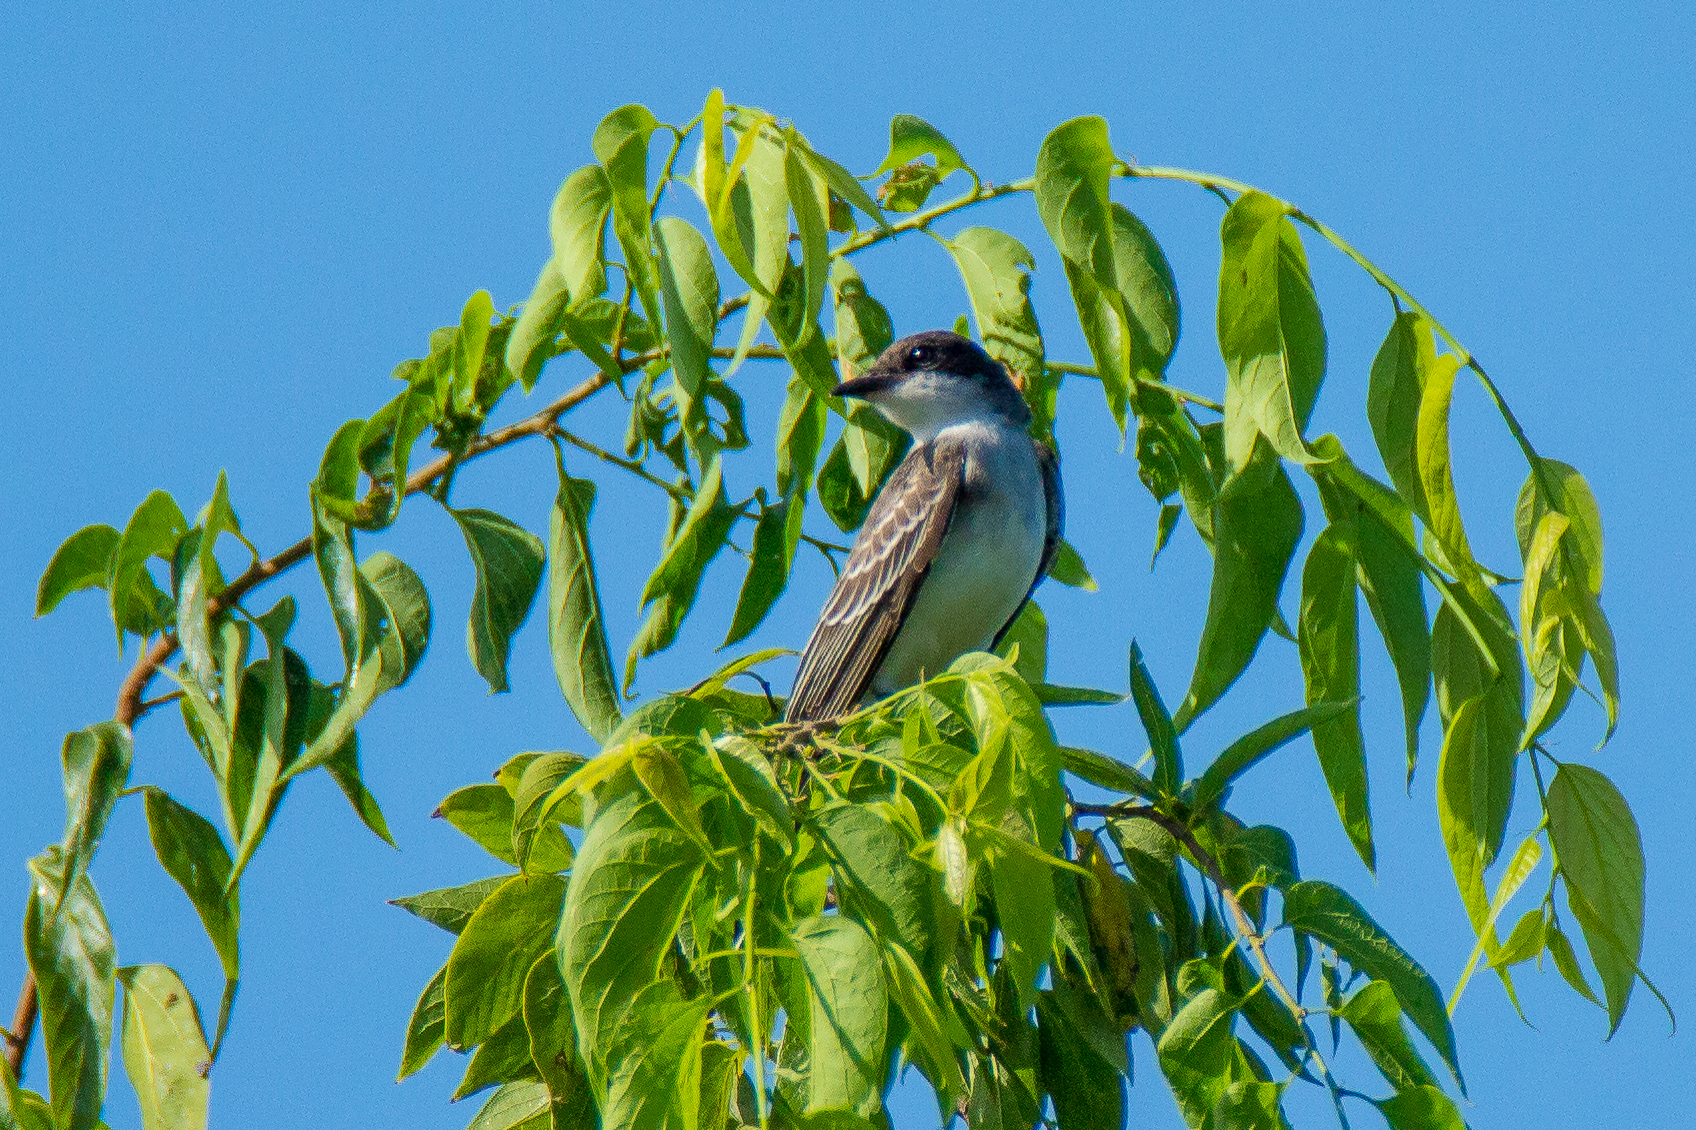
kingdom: Animalia
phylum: Chordata
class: Aves
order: Passeriformes
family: Tyrannidae
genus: Tyrannus
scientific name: Tyrannus tyrannus
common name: Eastern kingbird
